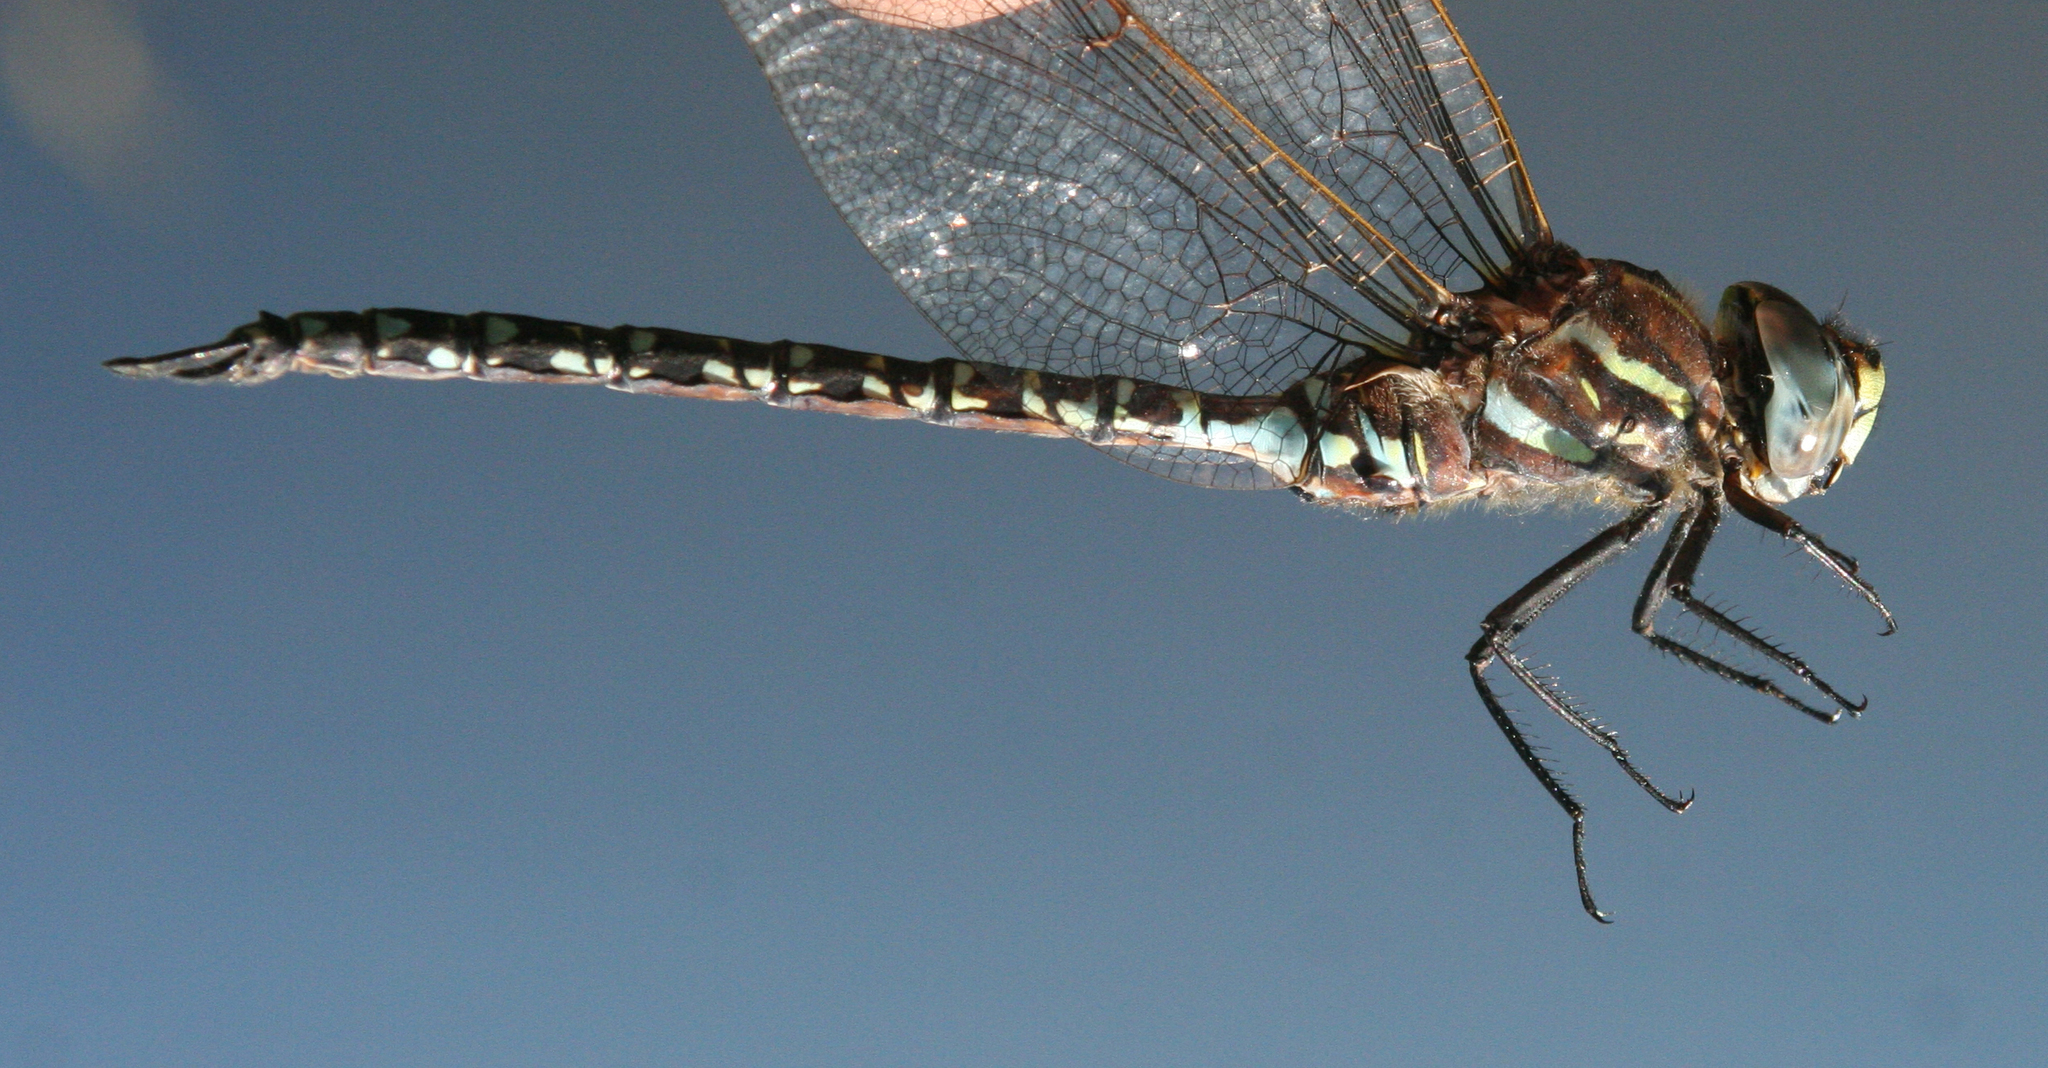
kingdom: Animalia
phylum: Arthropoda
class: Insecta
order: Odonata
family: Aeshnidae
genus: Aeshna
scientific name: Aeshna subarctica
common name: Subarctic darner
